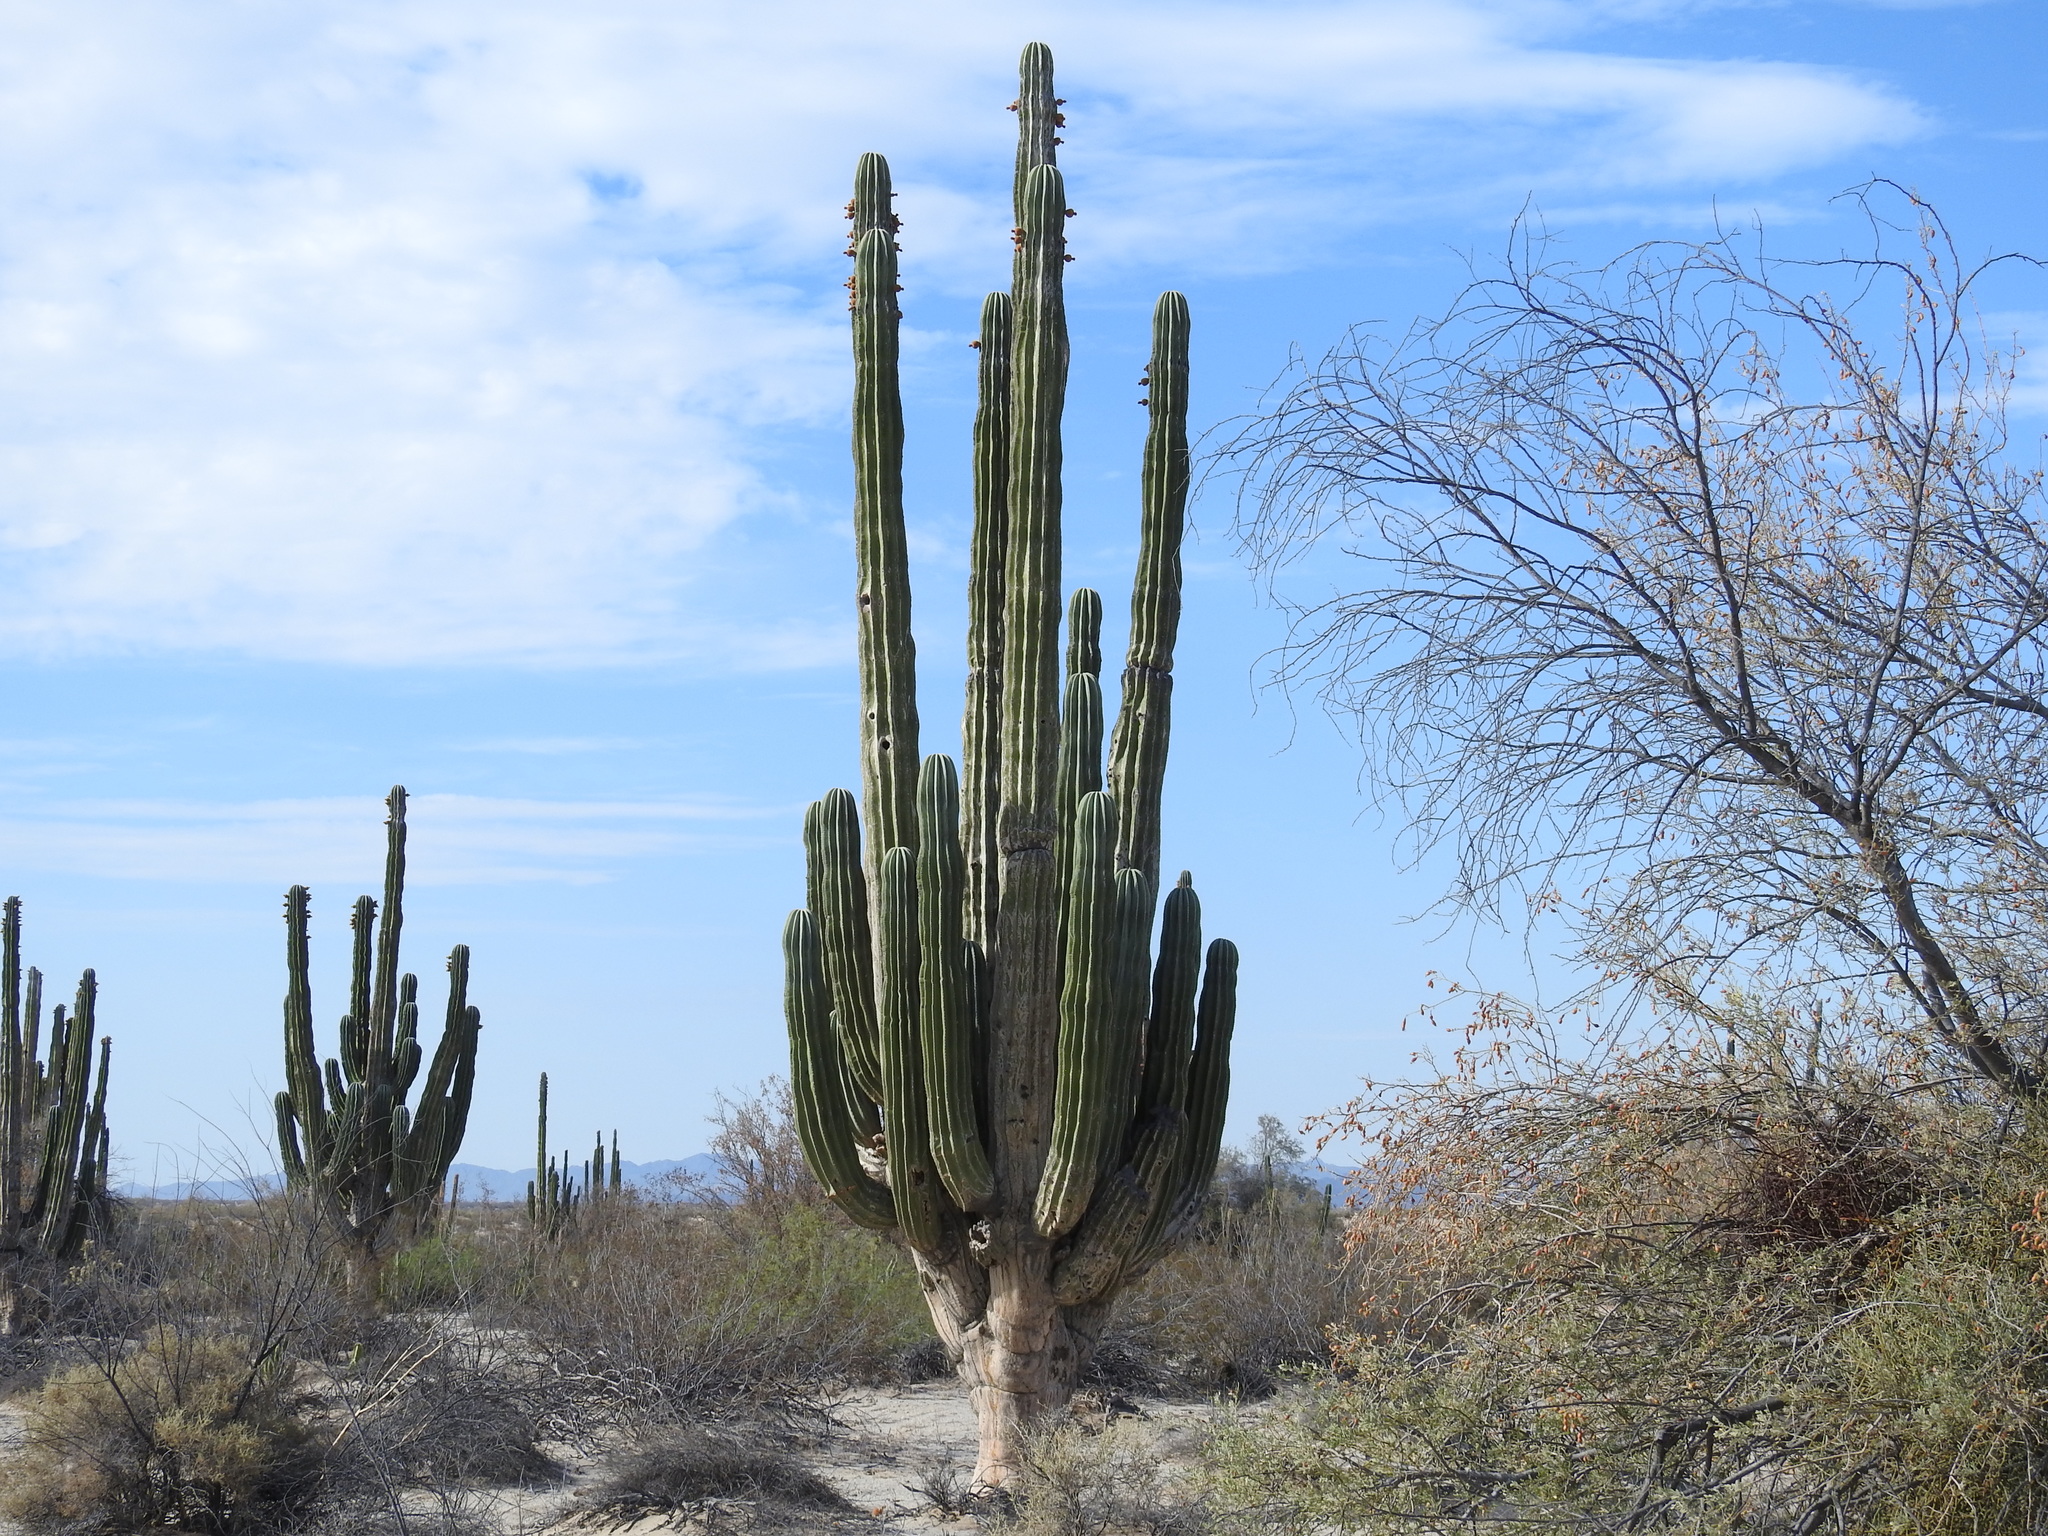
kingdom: Plantae
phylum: Tracheophyta
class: Magnoliopsida
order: Caryophyllales
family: Cactaceae
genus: Pachycereus
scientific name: Pachycereus pringlei
